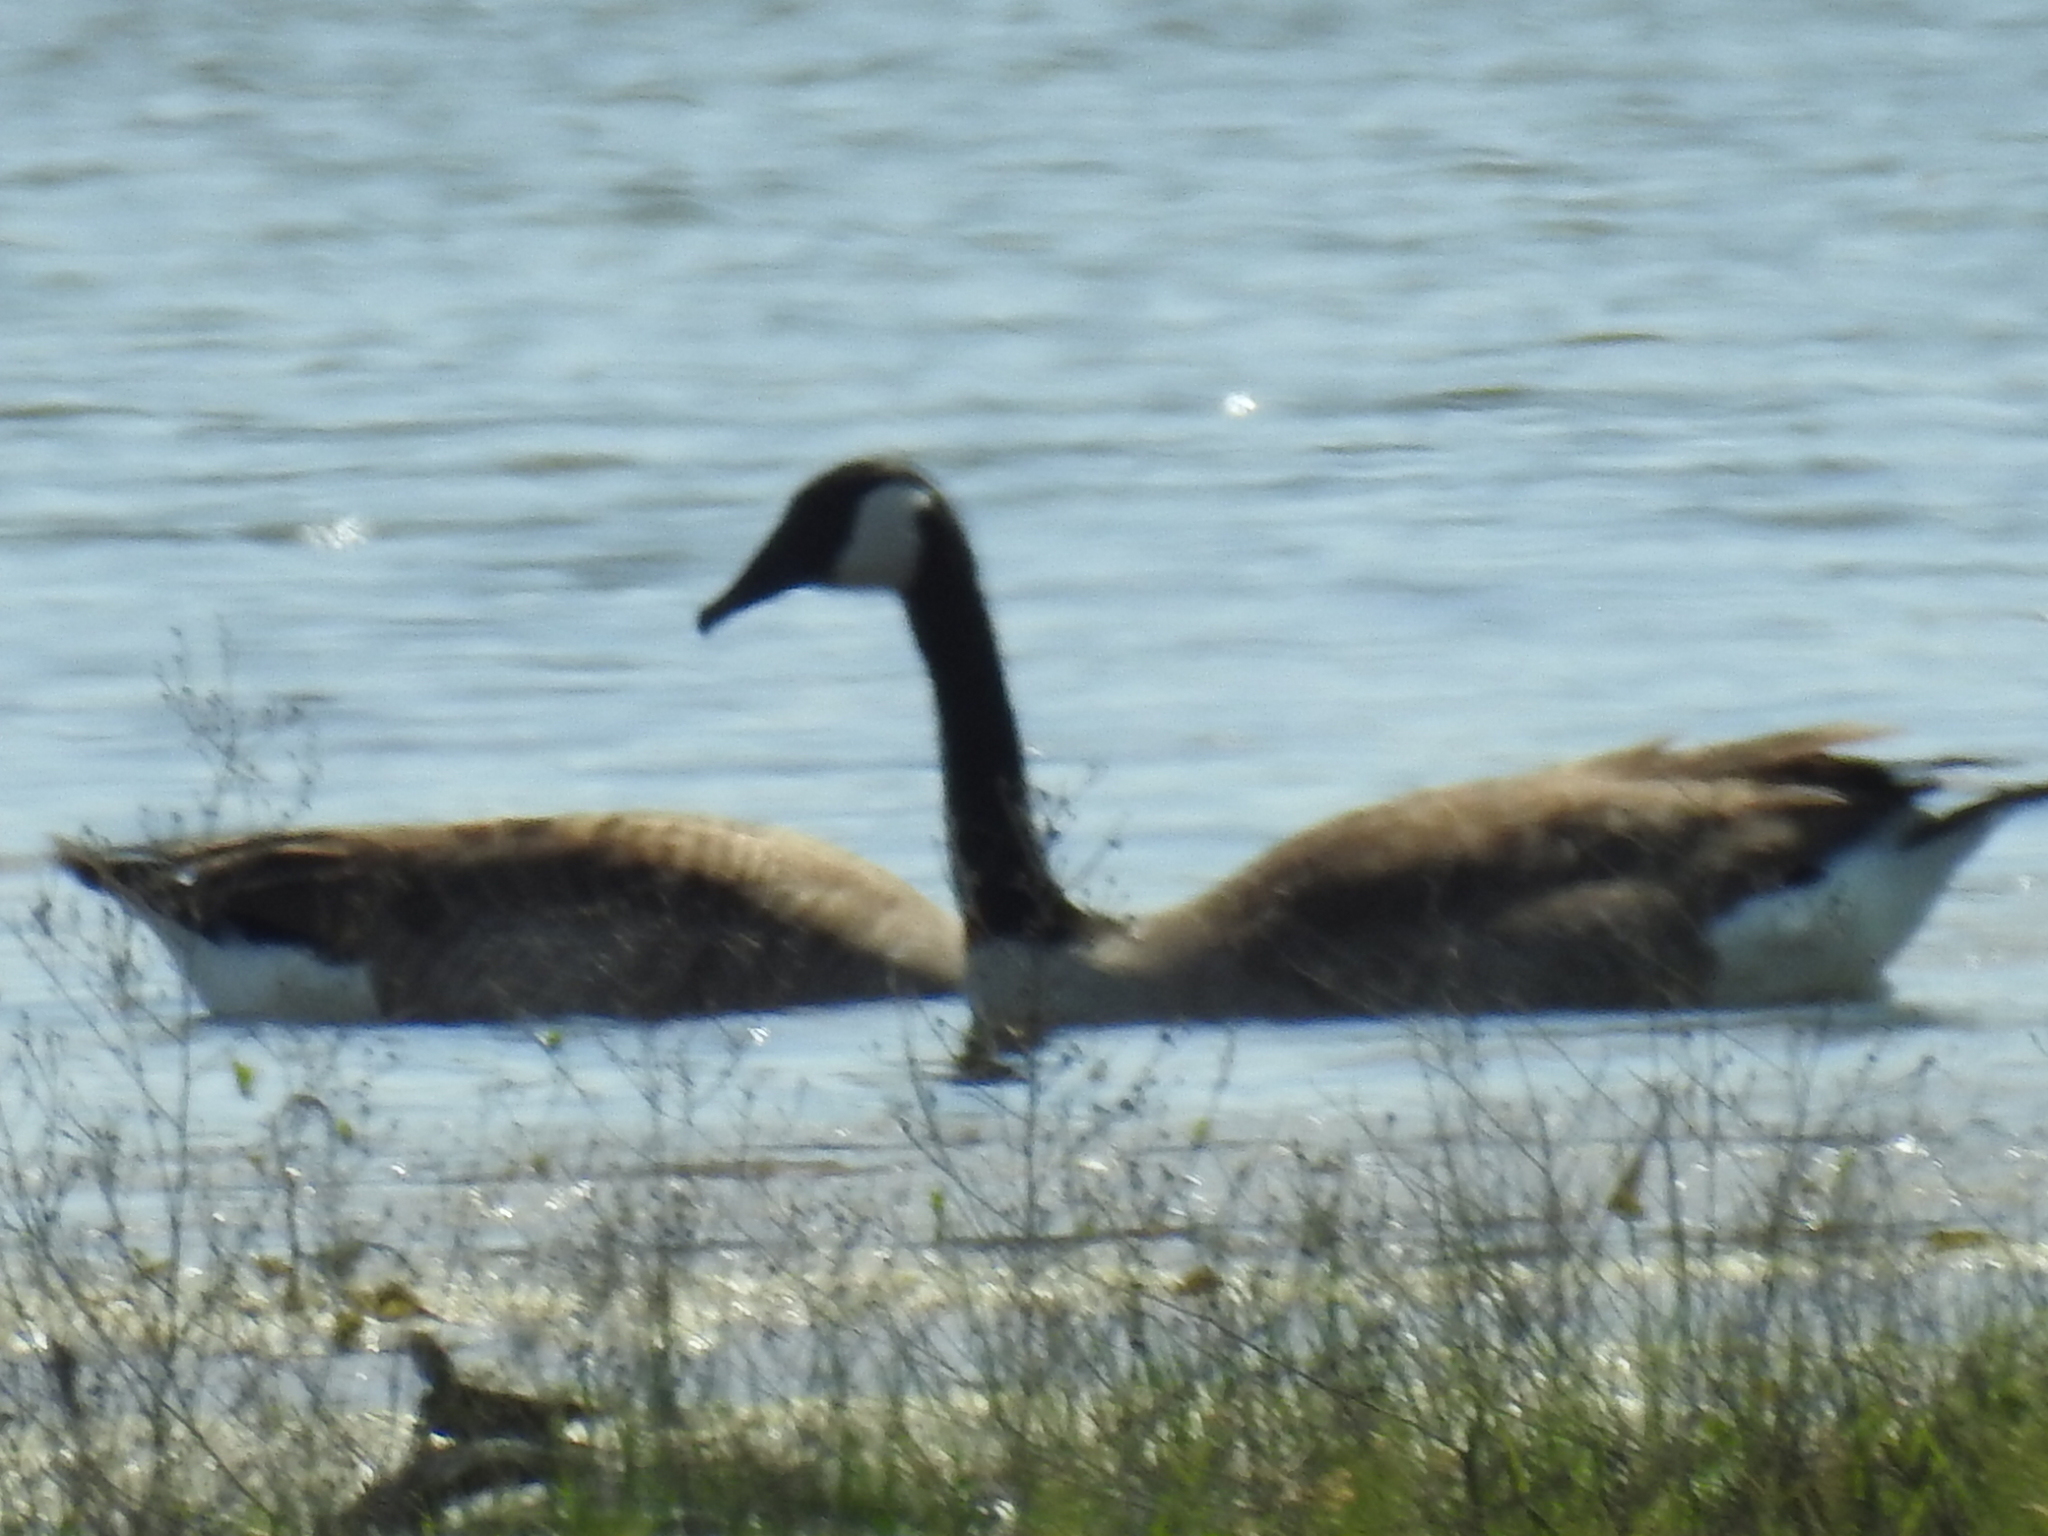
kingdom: Animalia
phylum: Chordata
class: Aves
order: Anseriformes
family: Anatidae
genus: Branta
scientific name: Branta canadensis
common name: Canada goose
